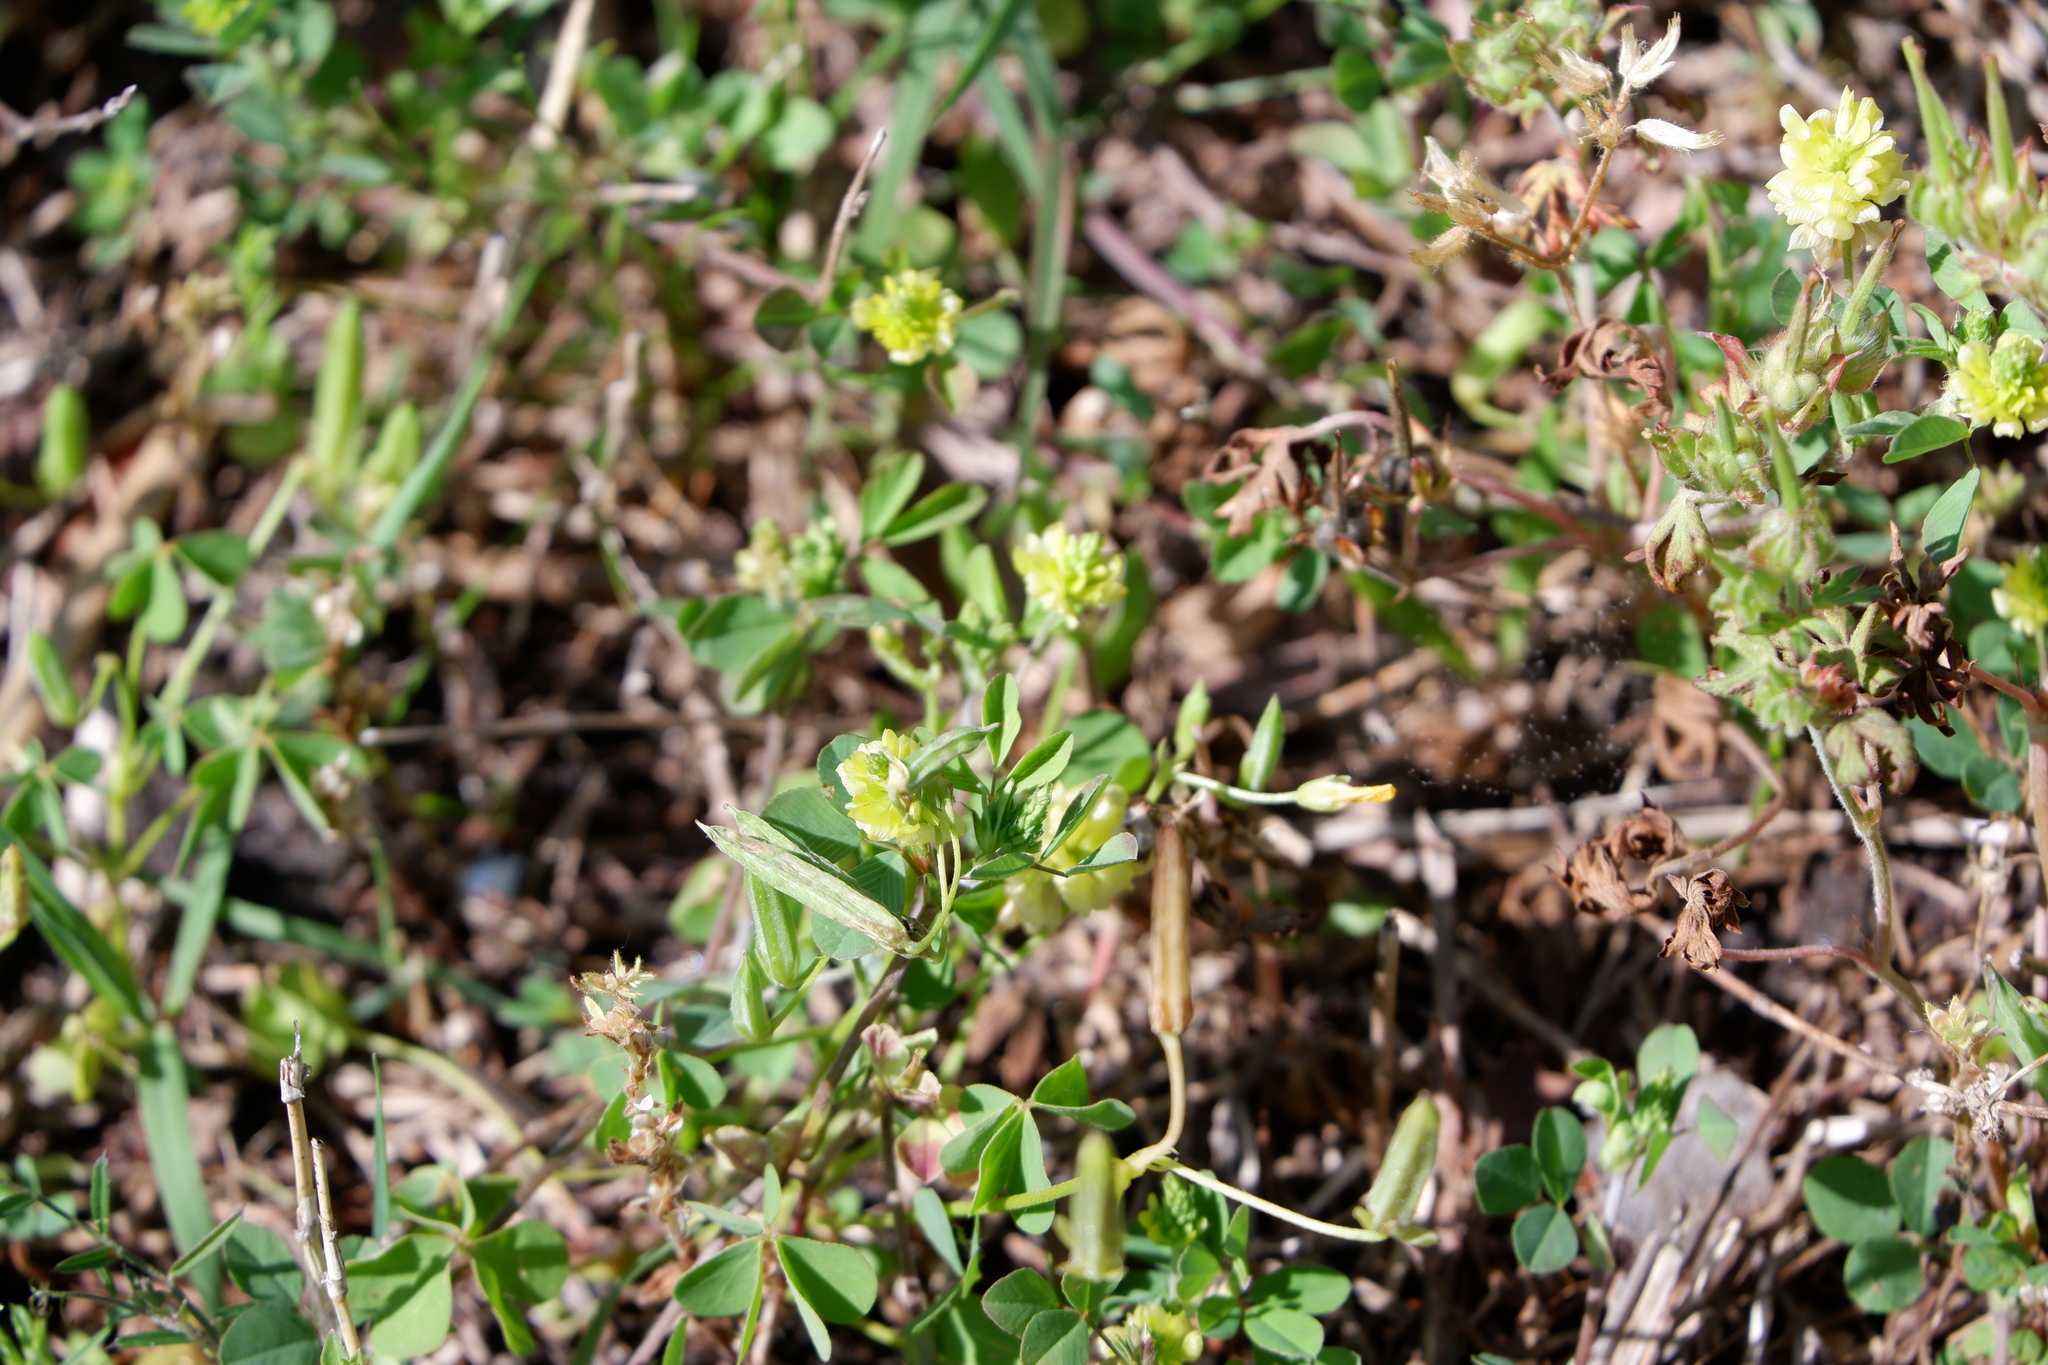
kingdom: Plantae
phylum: Tracheophyta
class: Magnoliopsida
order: Fabales
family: Fabaceae
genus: Trifolium
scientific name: Trifolium campestre
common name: Field clover
